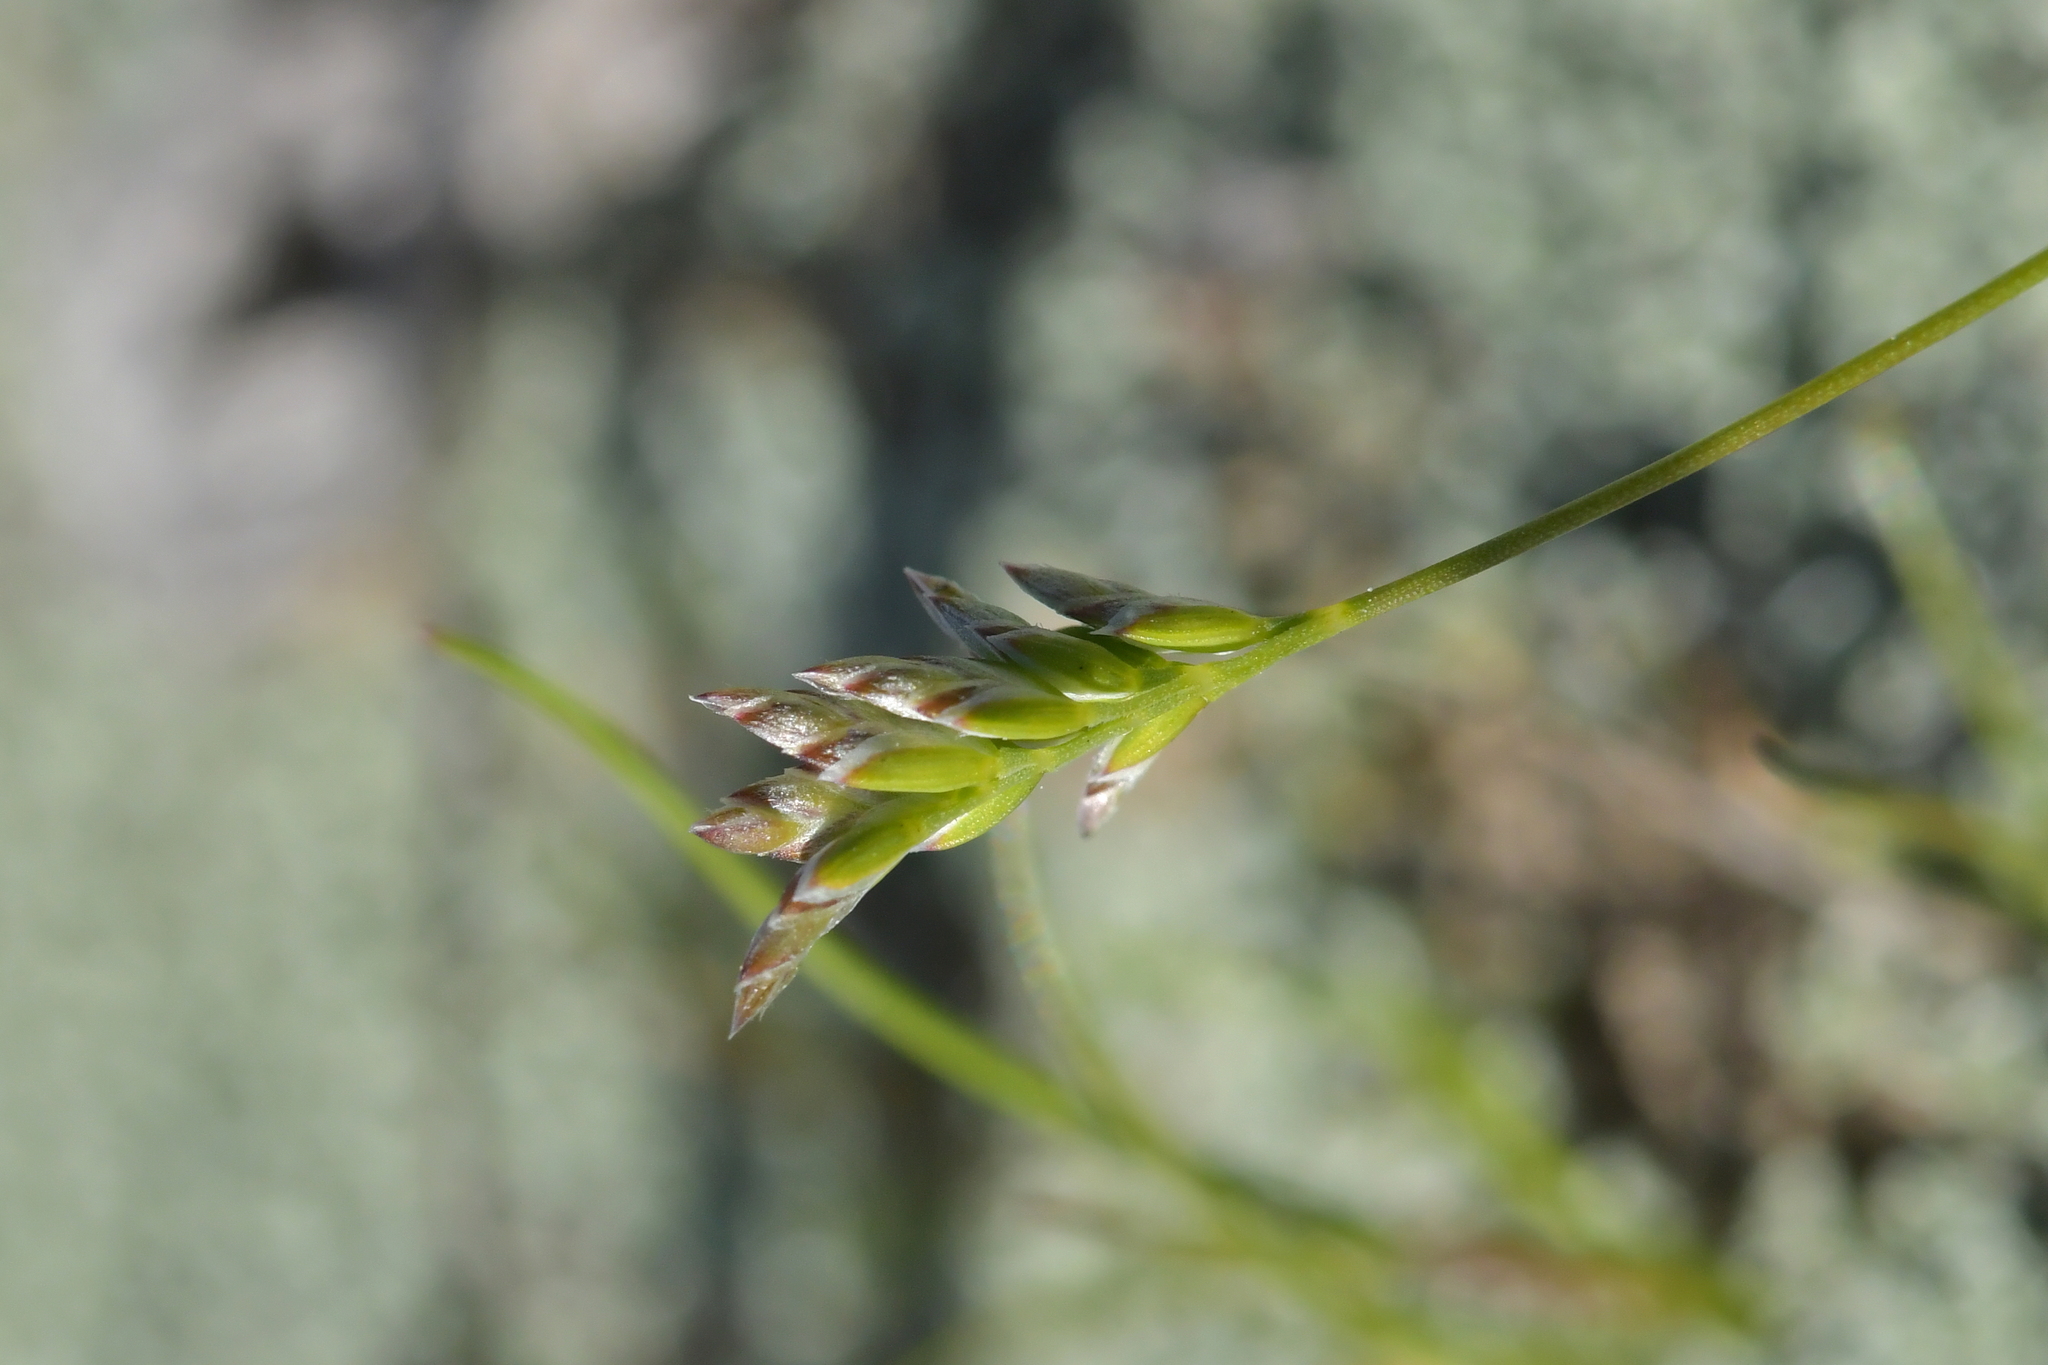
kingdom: Plantae
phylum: Tracheophyta
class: Liliopsida
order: Poales
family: Poaceae
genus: Poa
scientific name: Poa maniototo
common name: Desert poa
